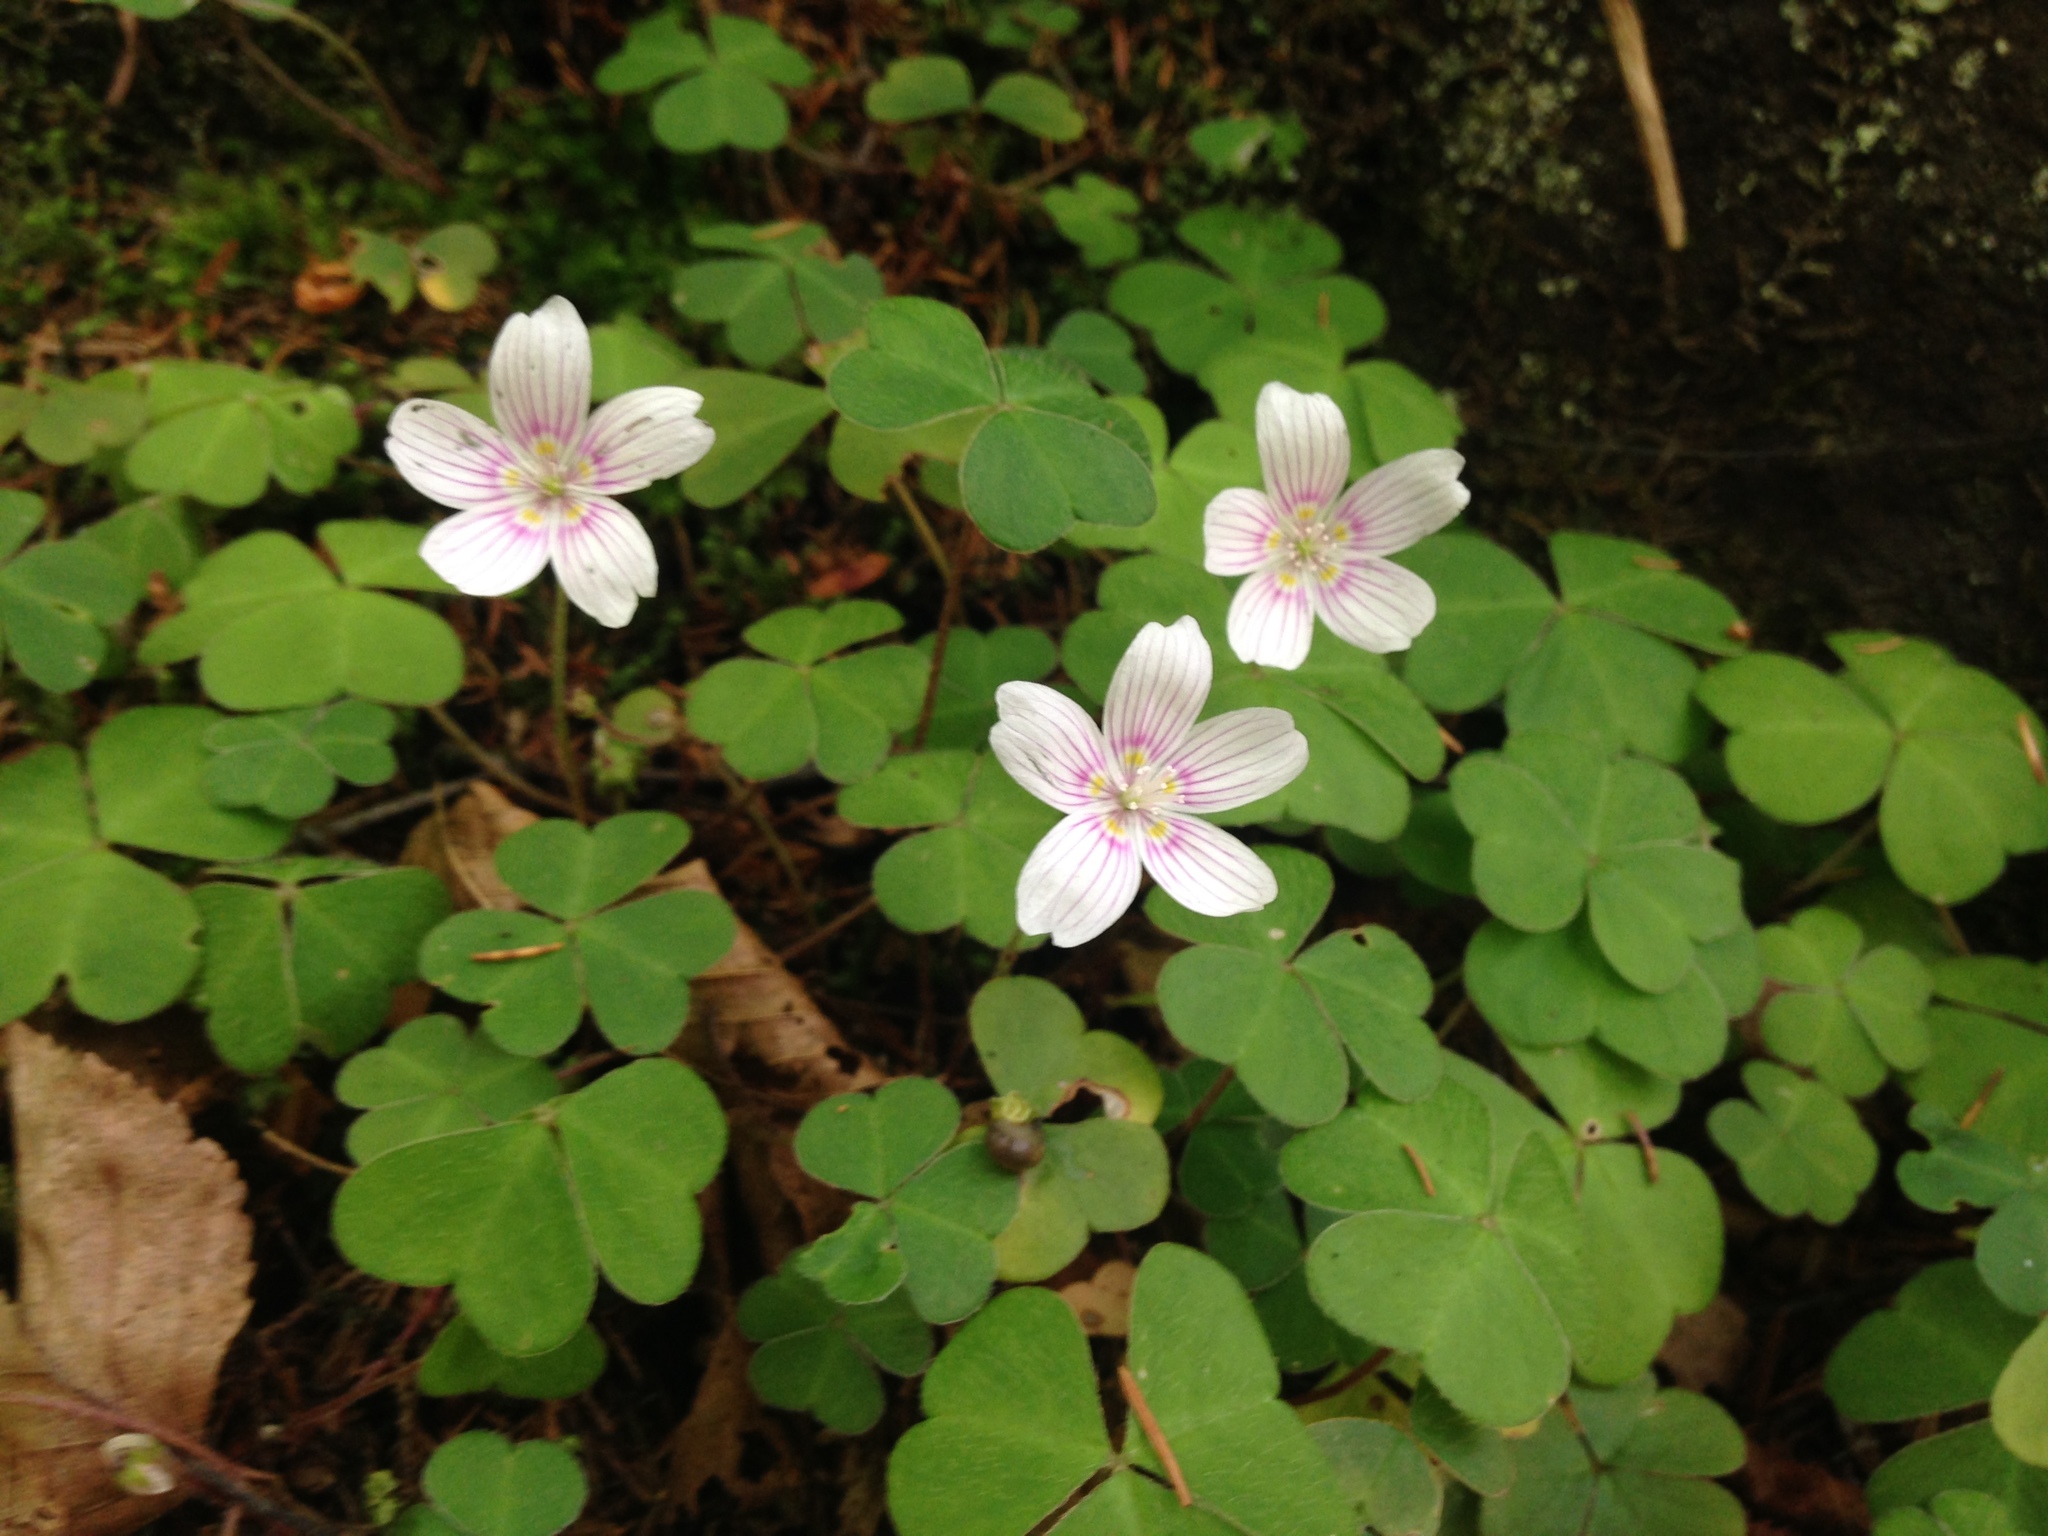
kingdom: Plantae
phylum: Tracheophyta
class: Magnoliopsida
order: Oxalidales
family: Oxalidaceae
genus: Oxalis
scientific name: Oxalis montana
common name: American wood-sorrel
